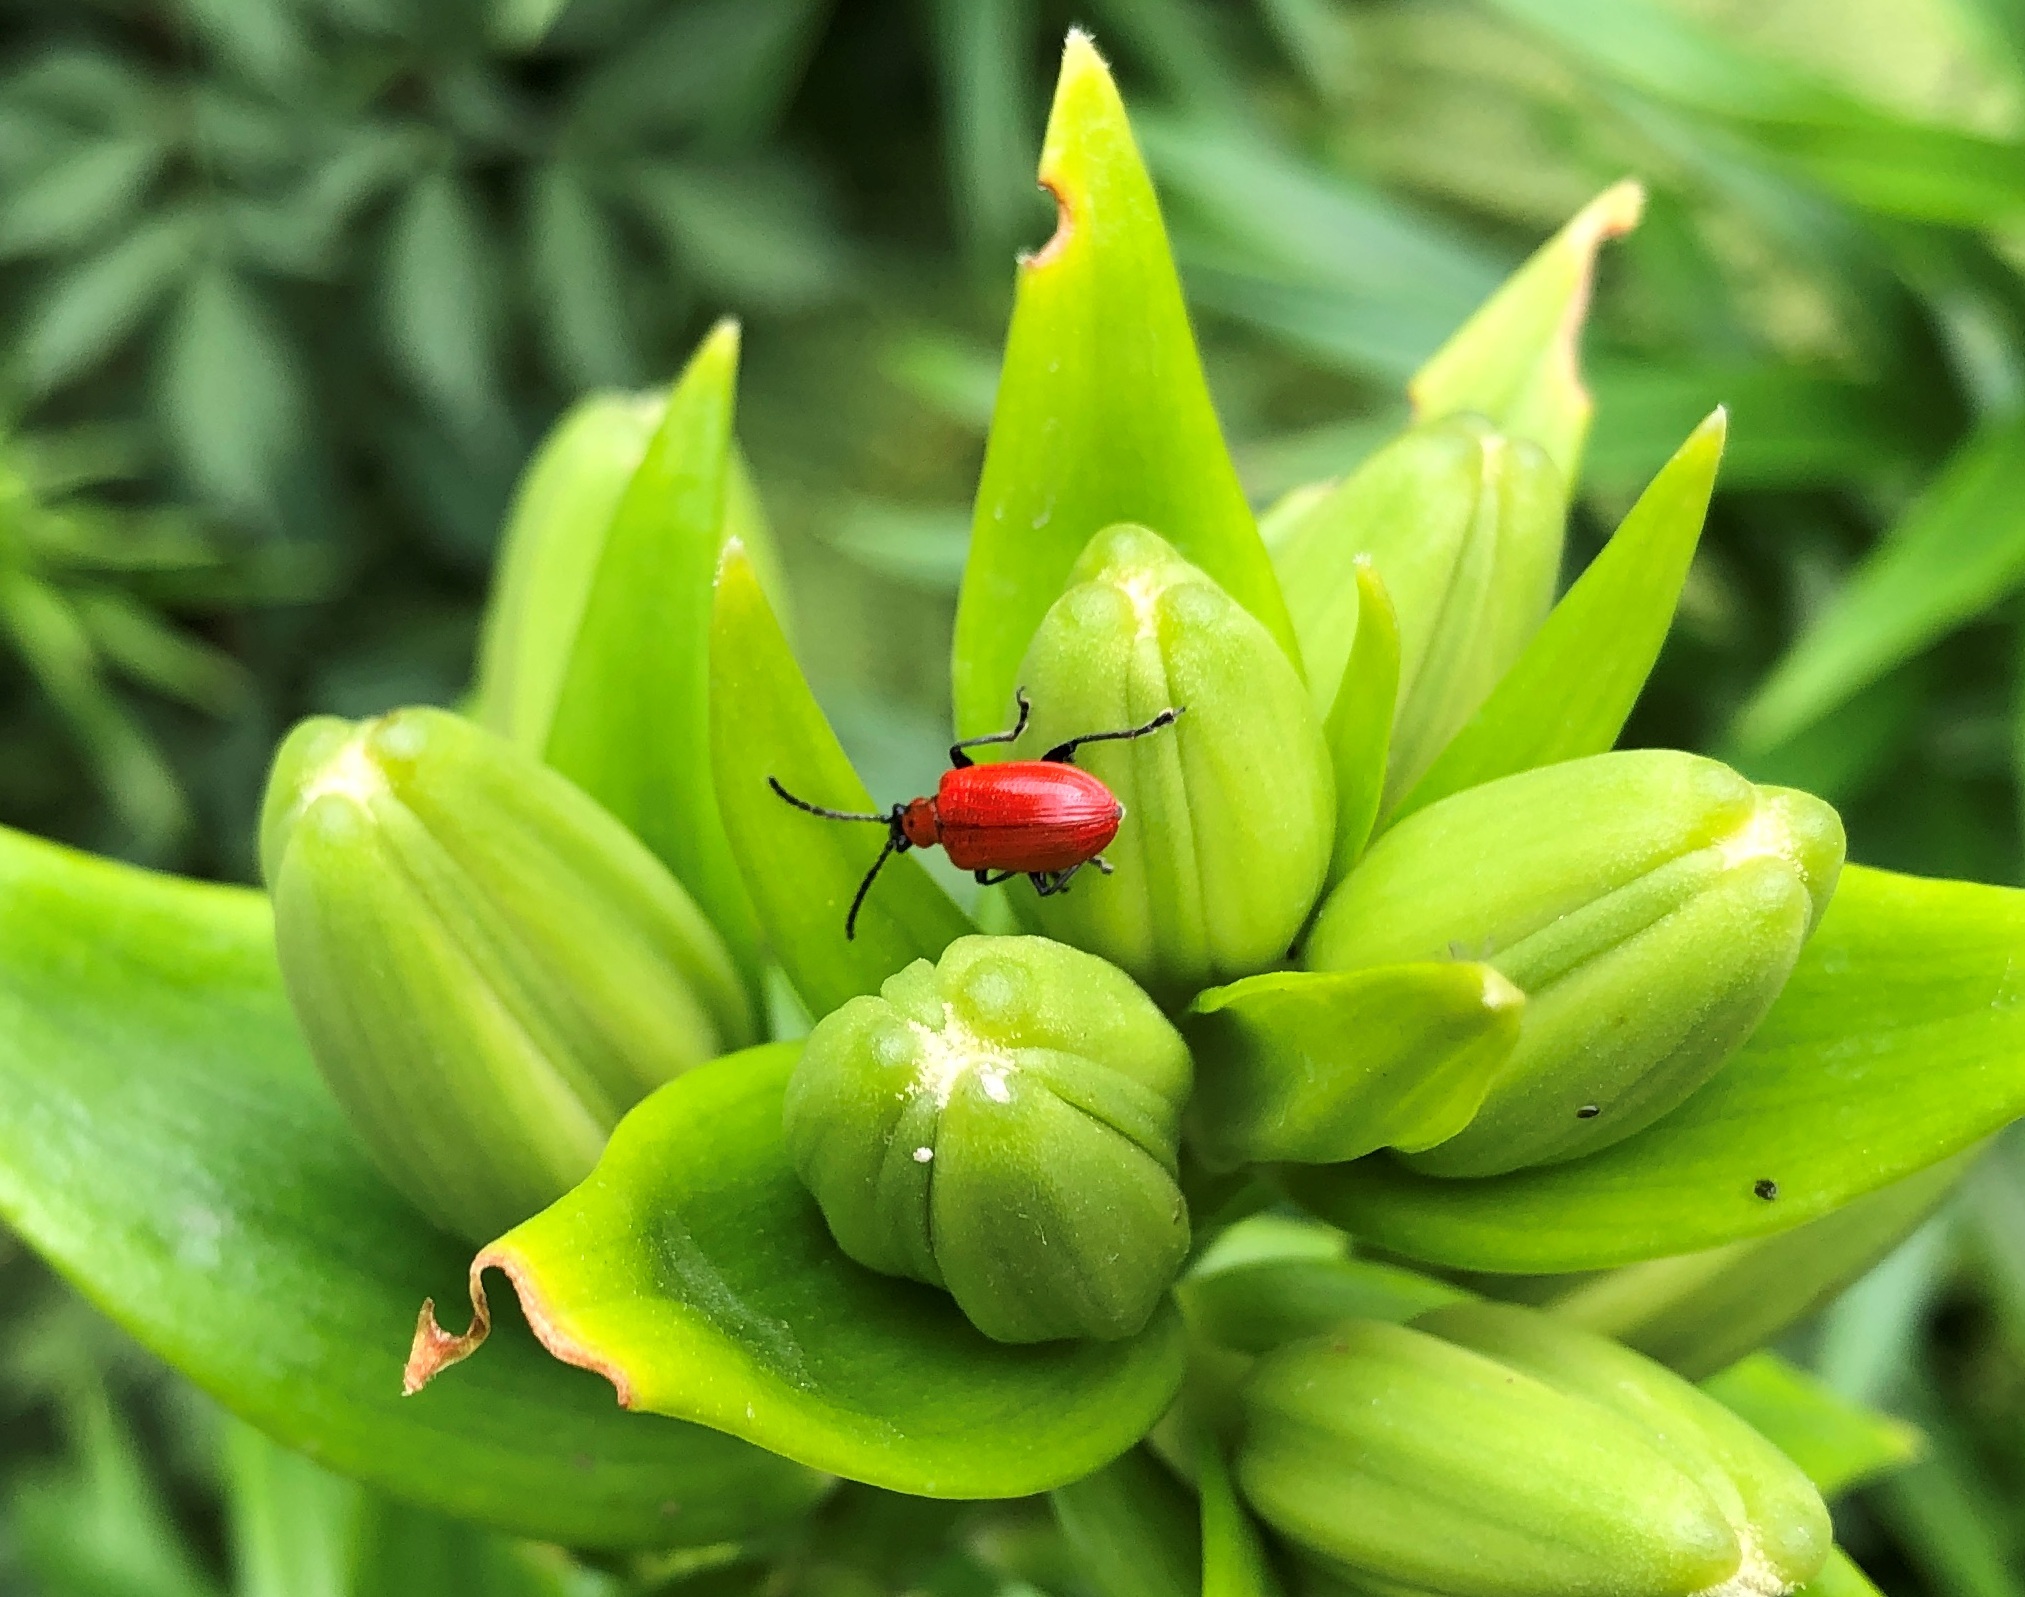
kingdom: Animalia
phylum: Arthropoda
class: Insecta
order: Coleoptera
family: Chrysomelidae
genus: Lilioceris
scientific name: Lilioceris lilii
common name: Lily beetle
